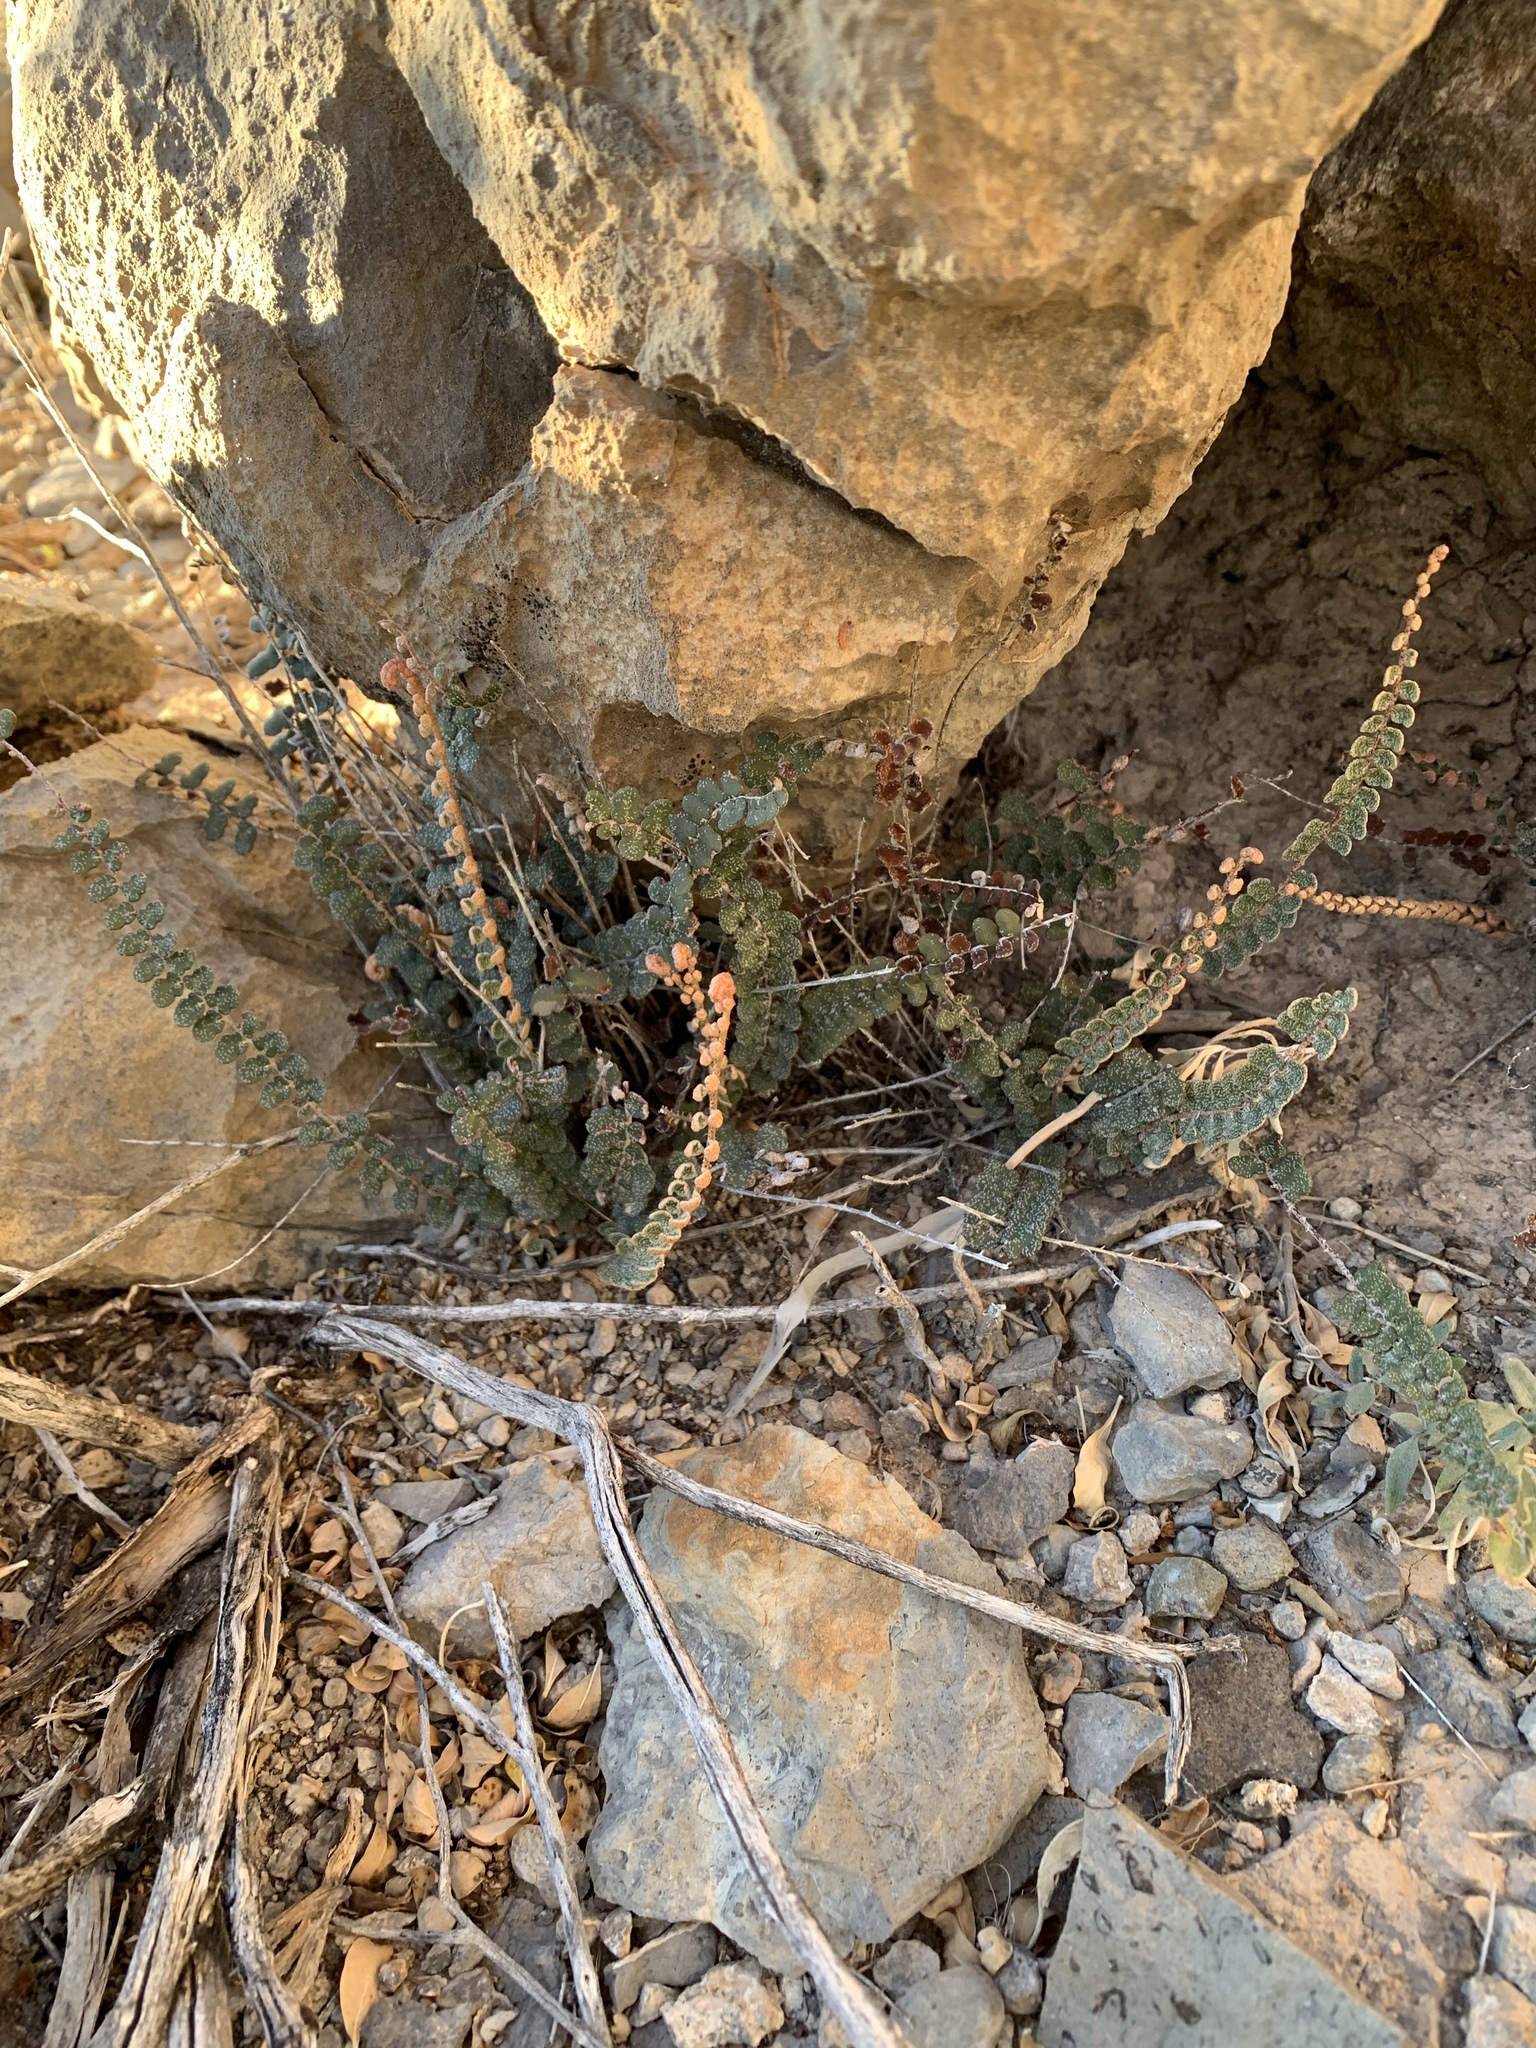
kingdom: Plantae
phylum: Tracheophyta
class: Polypodiopsida
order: Polypodiales
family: Pteridaceae
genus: Astrolepis
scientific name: Astrolepis cochisensis
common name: Scaly cloak fern
